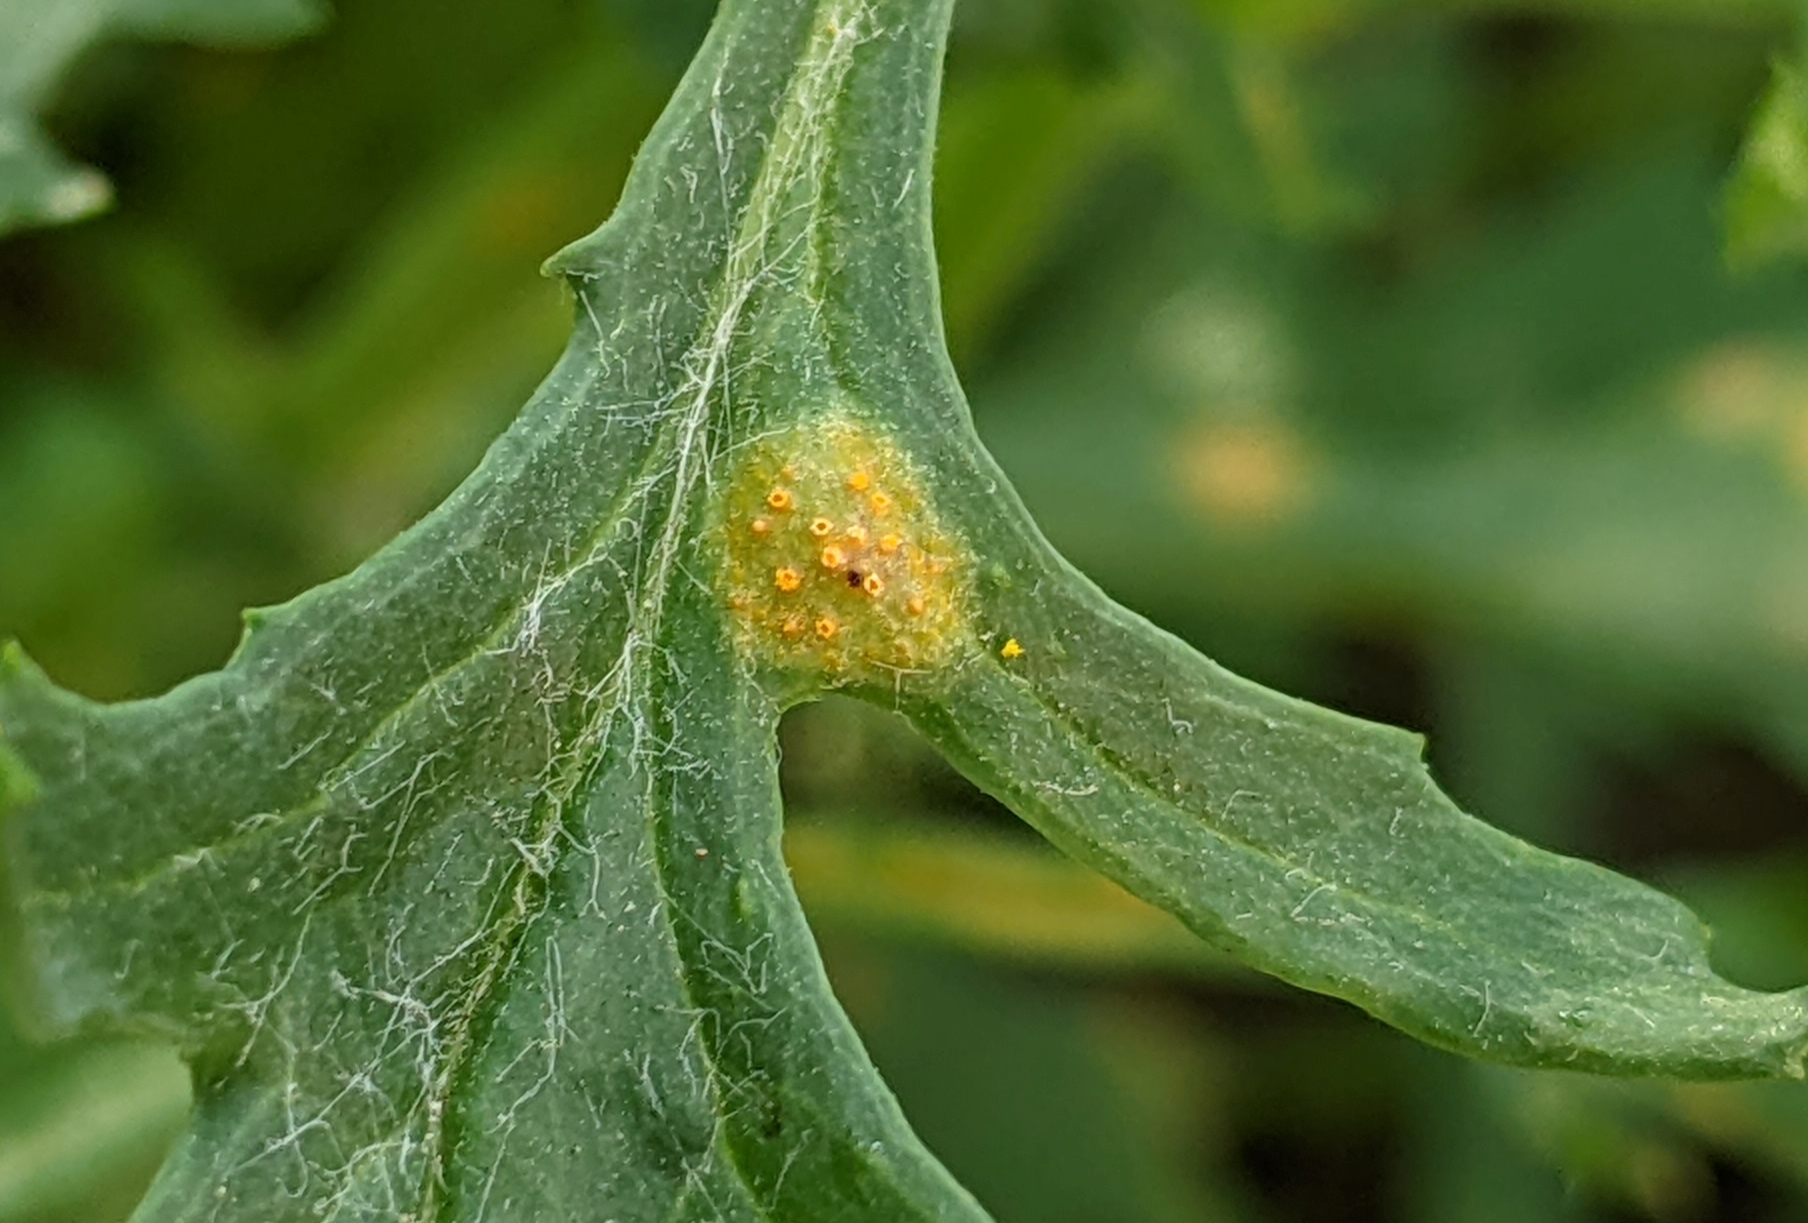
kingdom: Fungi
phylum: Basidiomycota
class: Pucciniomycetes
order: Pucciniales
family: Pucciniaceae
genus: Puccinia
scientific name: Puccinia lagenophorae
